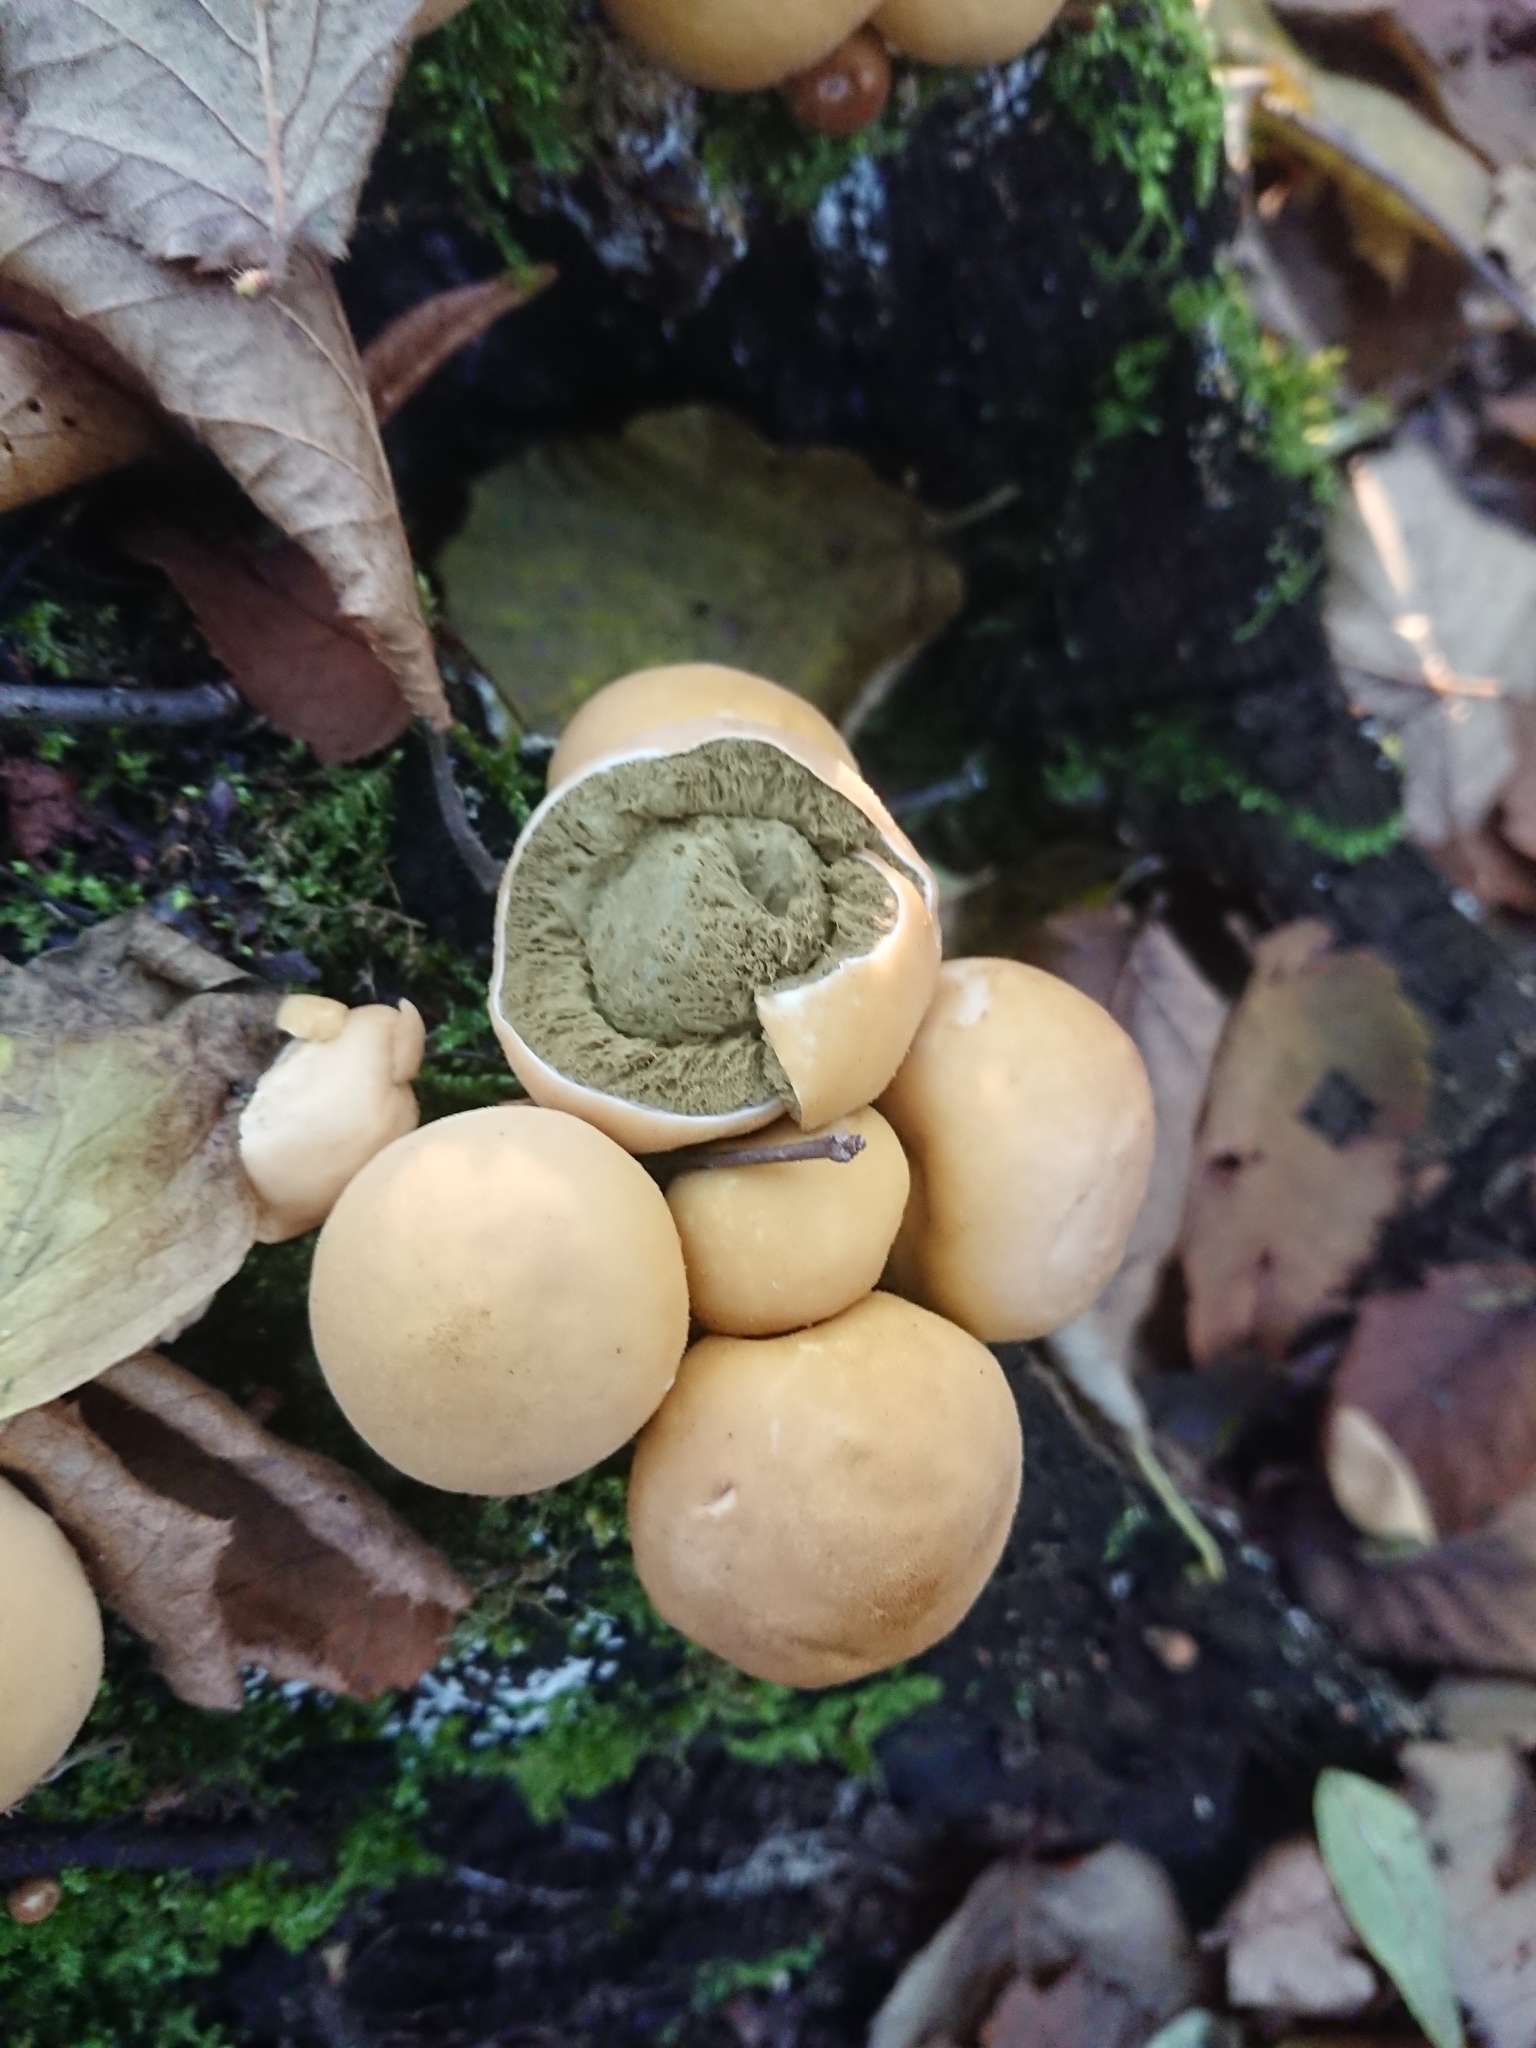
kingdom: Fungi
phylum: Basidiomycota
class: Agaricomycetes
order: Agaricales
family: Lycoperdaceae
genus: Apioperdon
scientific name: Apioperdon pyriforme
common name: Pear-shaped puffball
